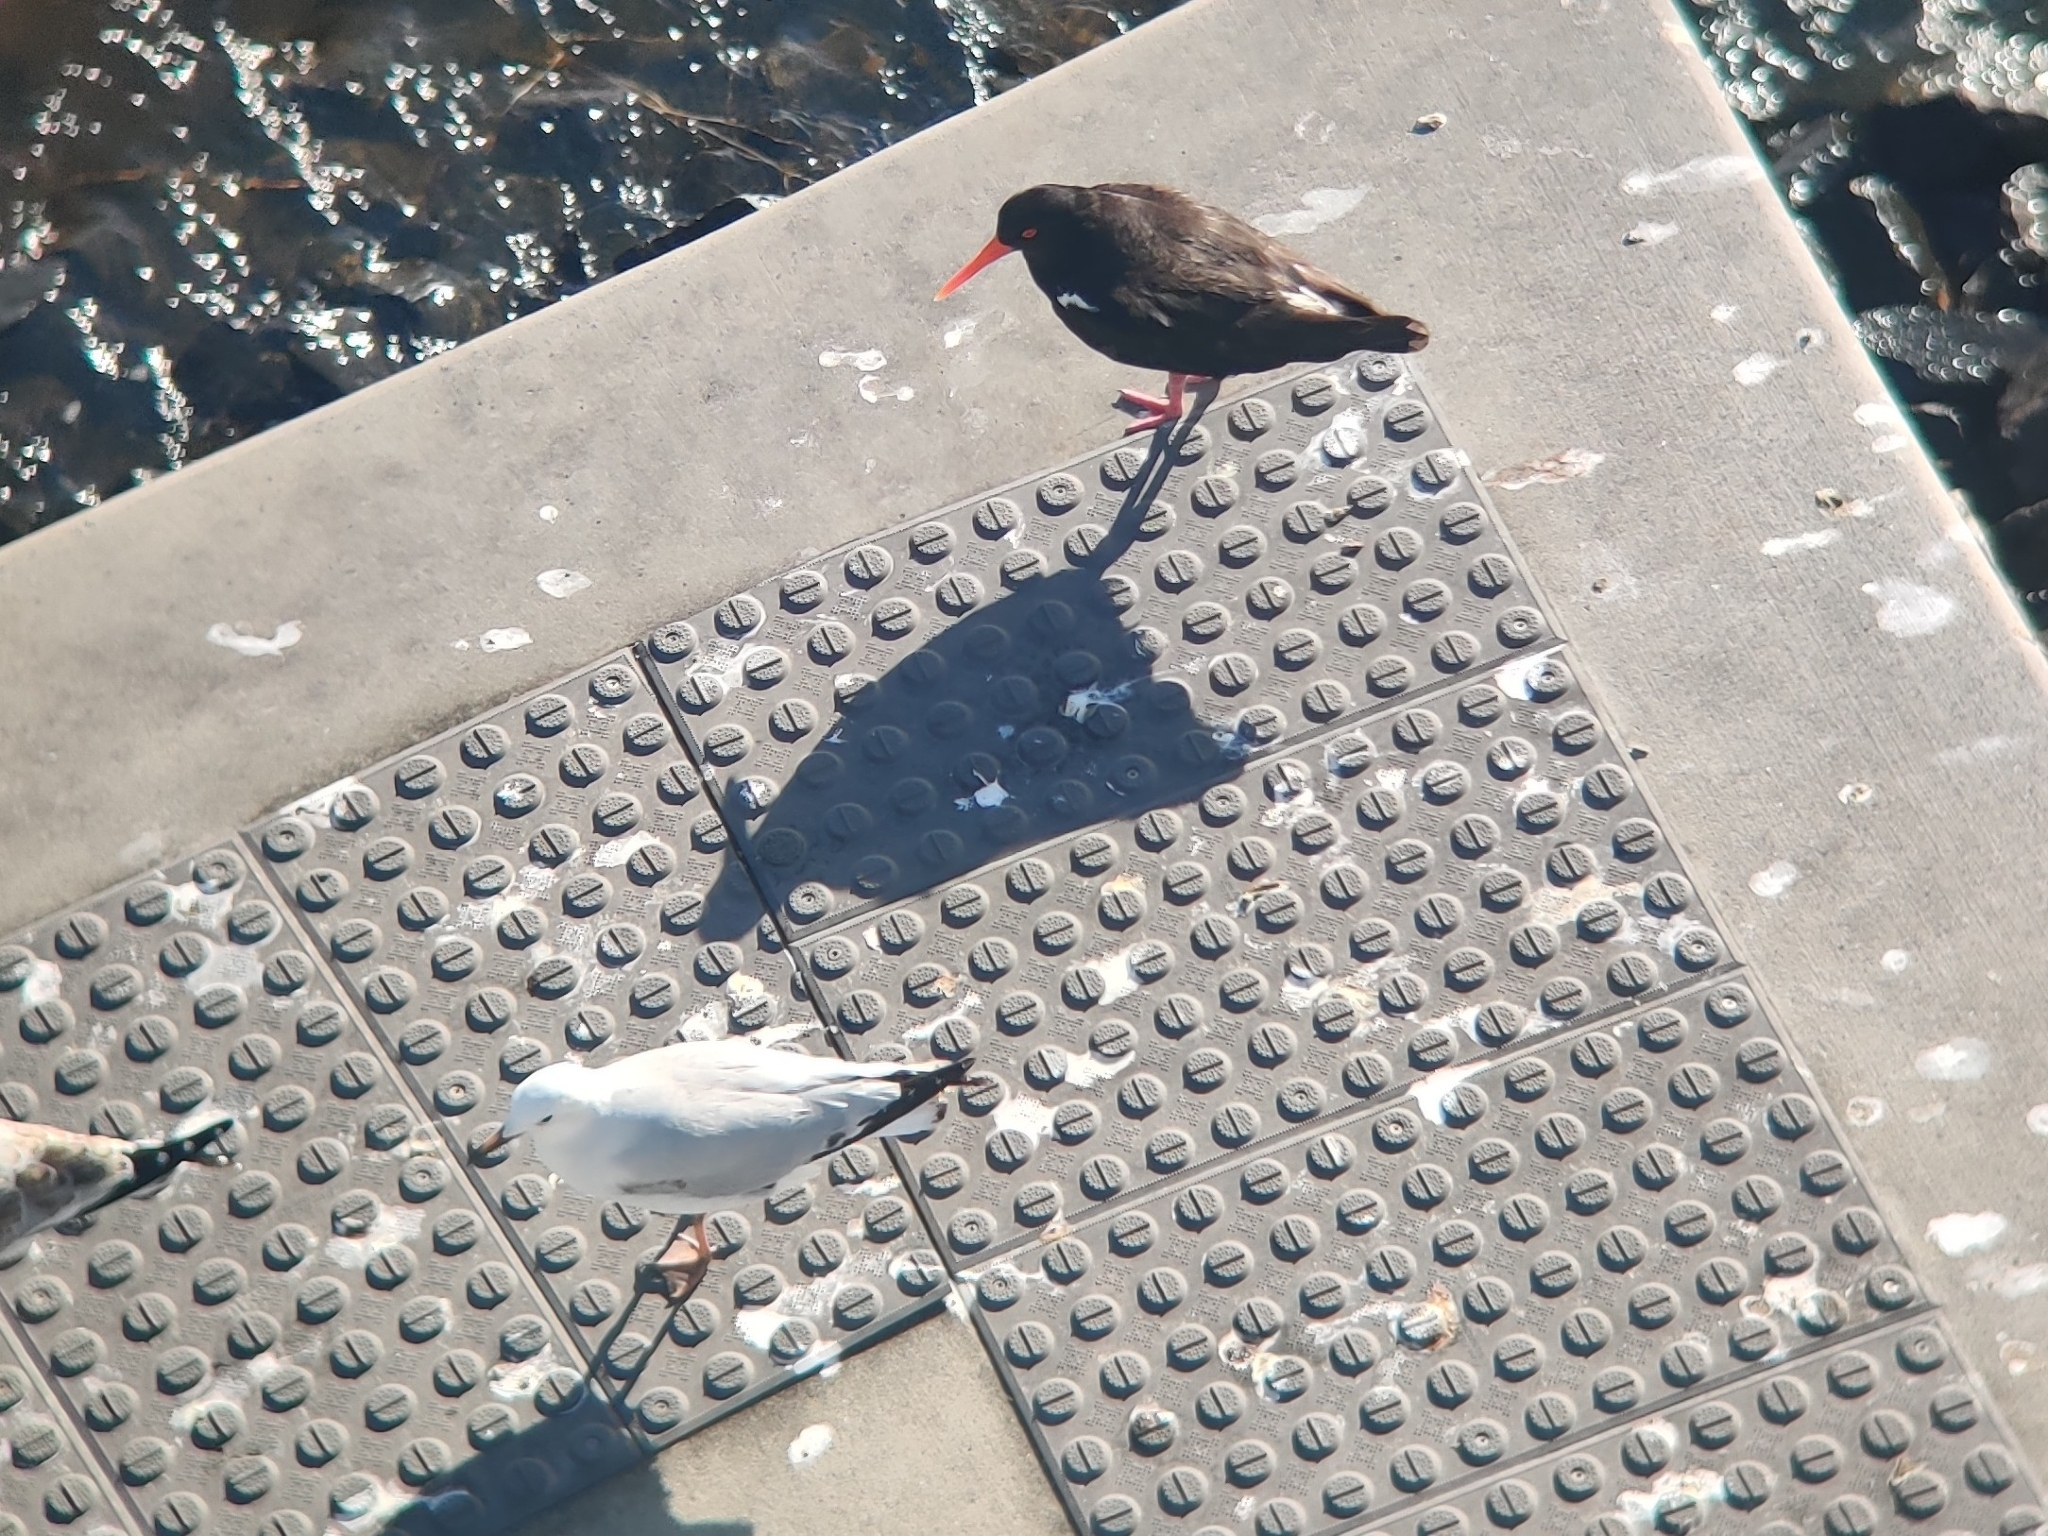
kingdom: Animalia
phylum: Chordata
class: Aves
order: Charadriiformes
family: Haematopodidae
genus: Haematopus
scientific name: Haematopus longirostris
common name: Pied oystercatcher
